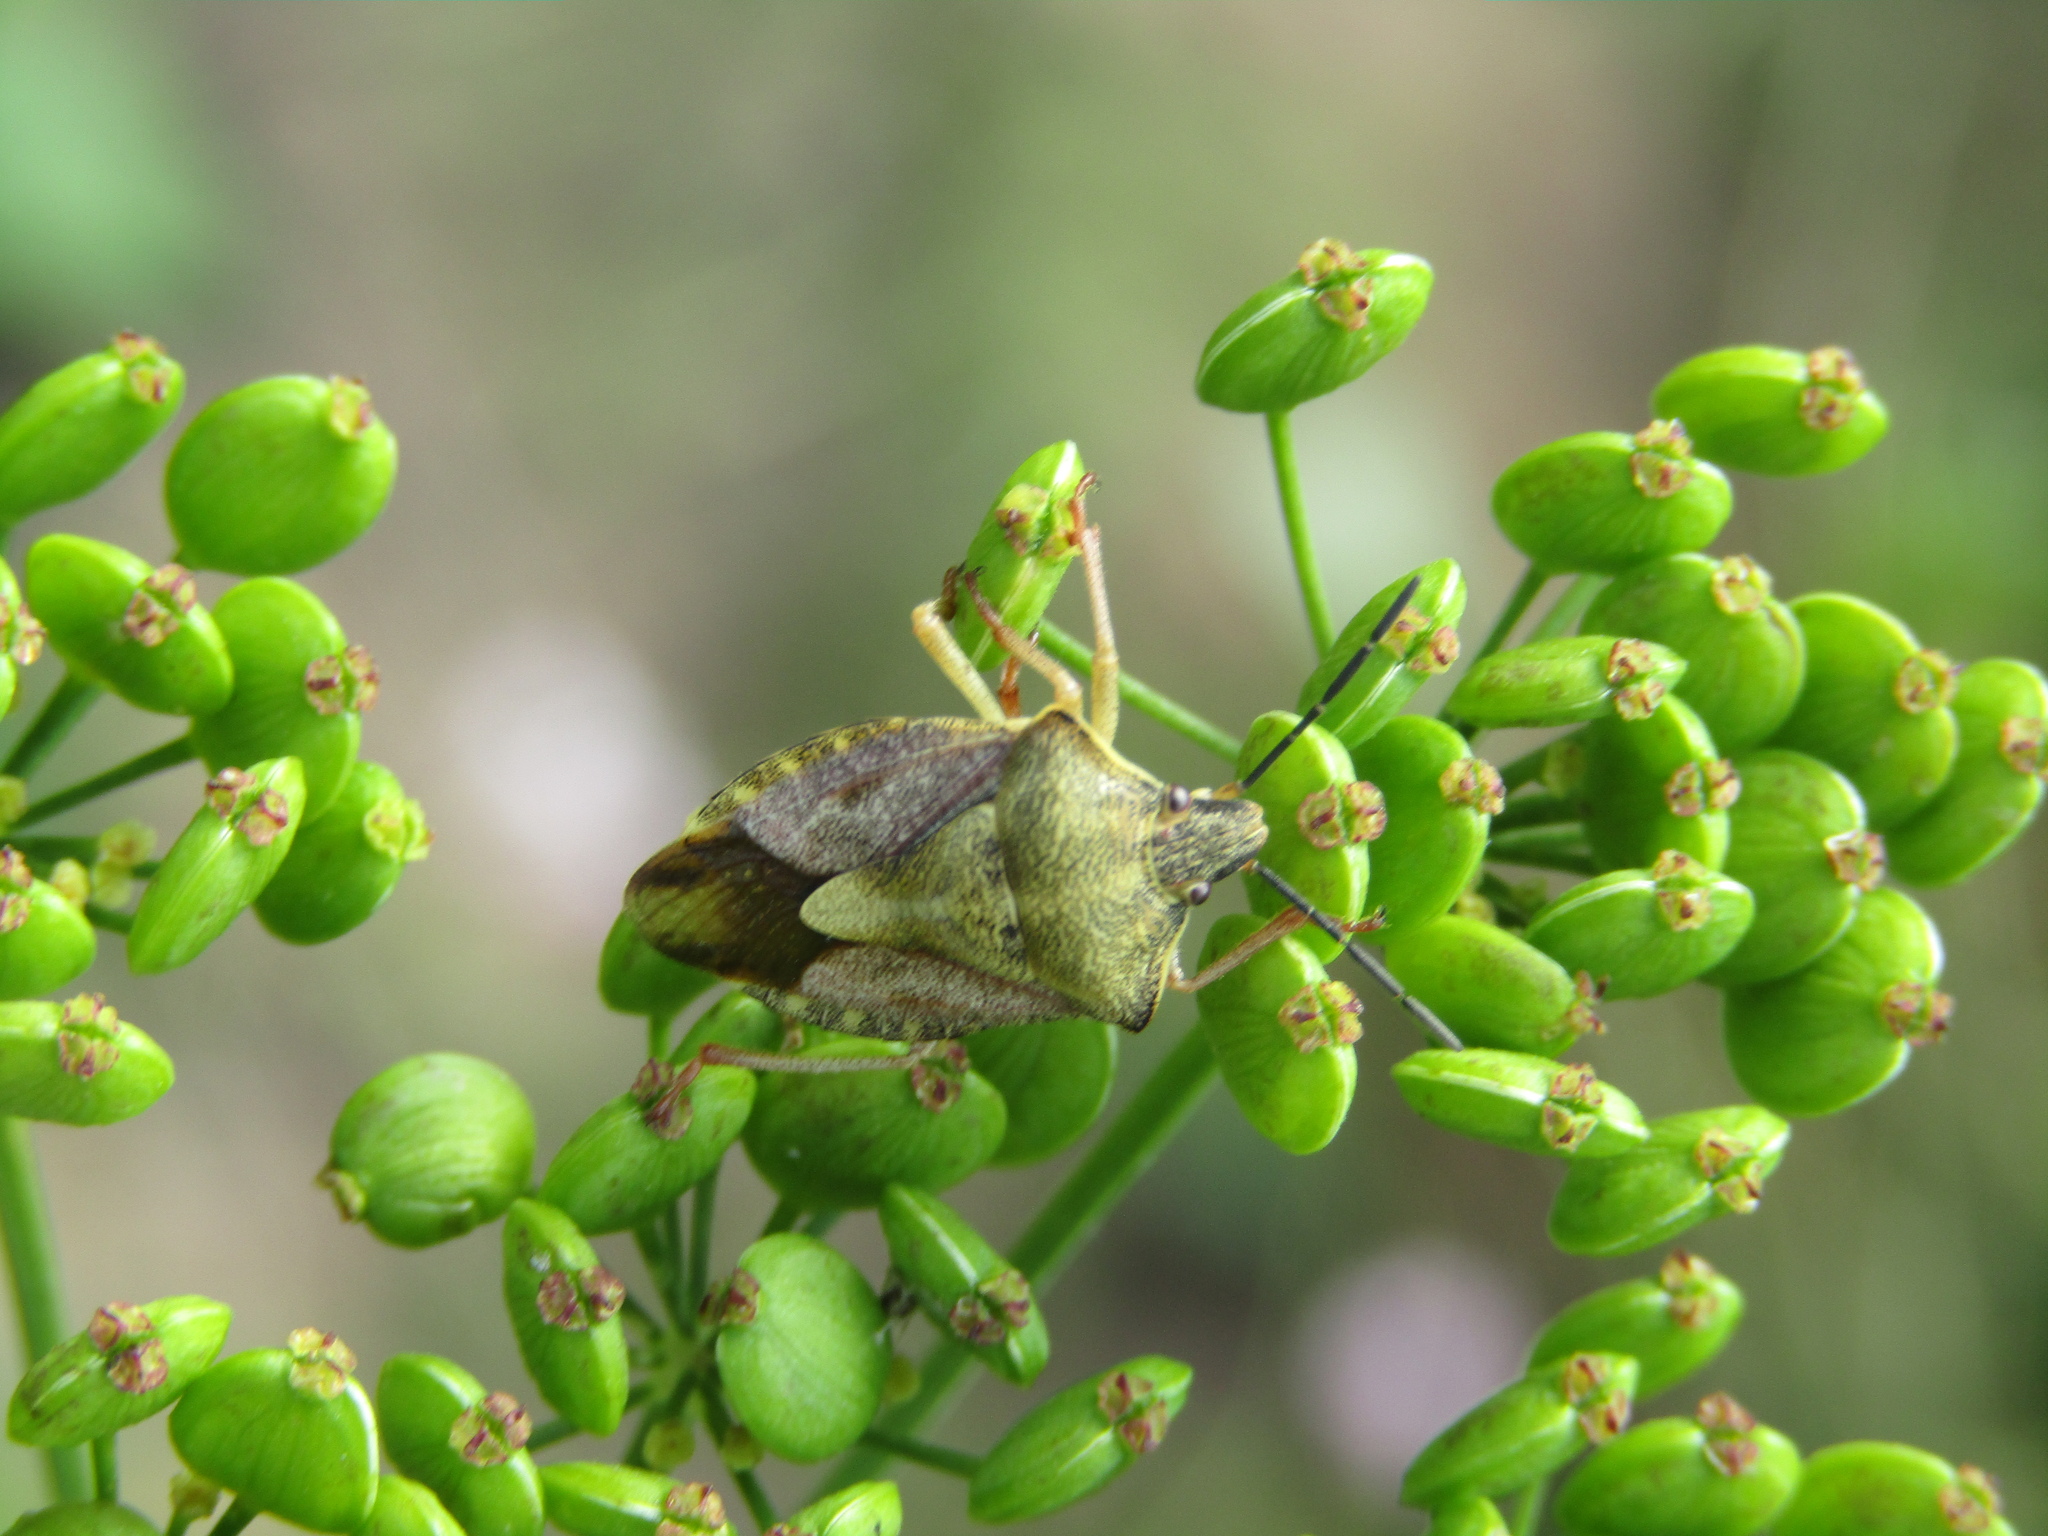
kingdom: Animalia
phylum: Arthropoda
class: Insecta
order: Hemiptera
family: Pentatomidae
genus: Carpocoris
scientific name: Carpocoris purpureipennis
